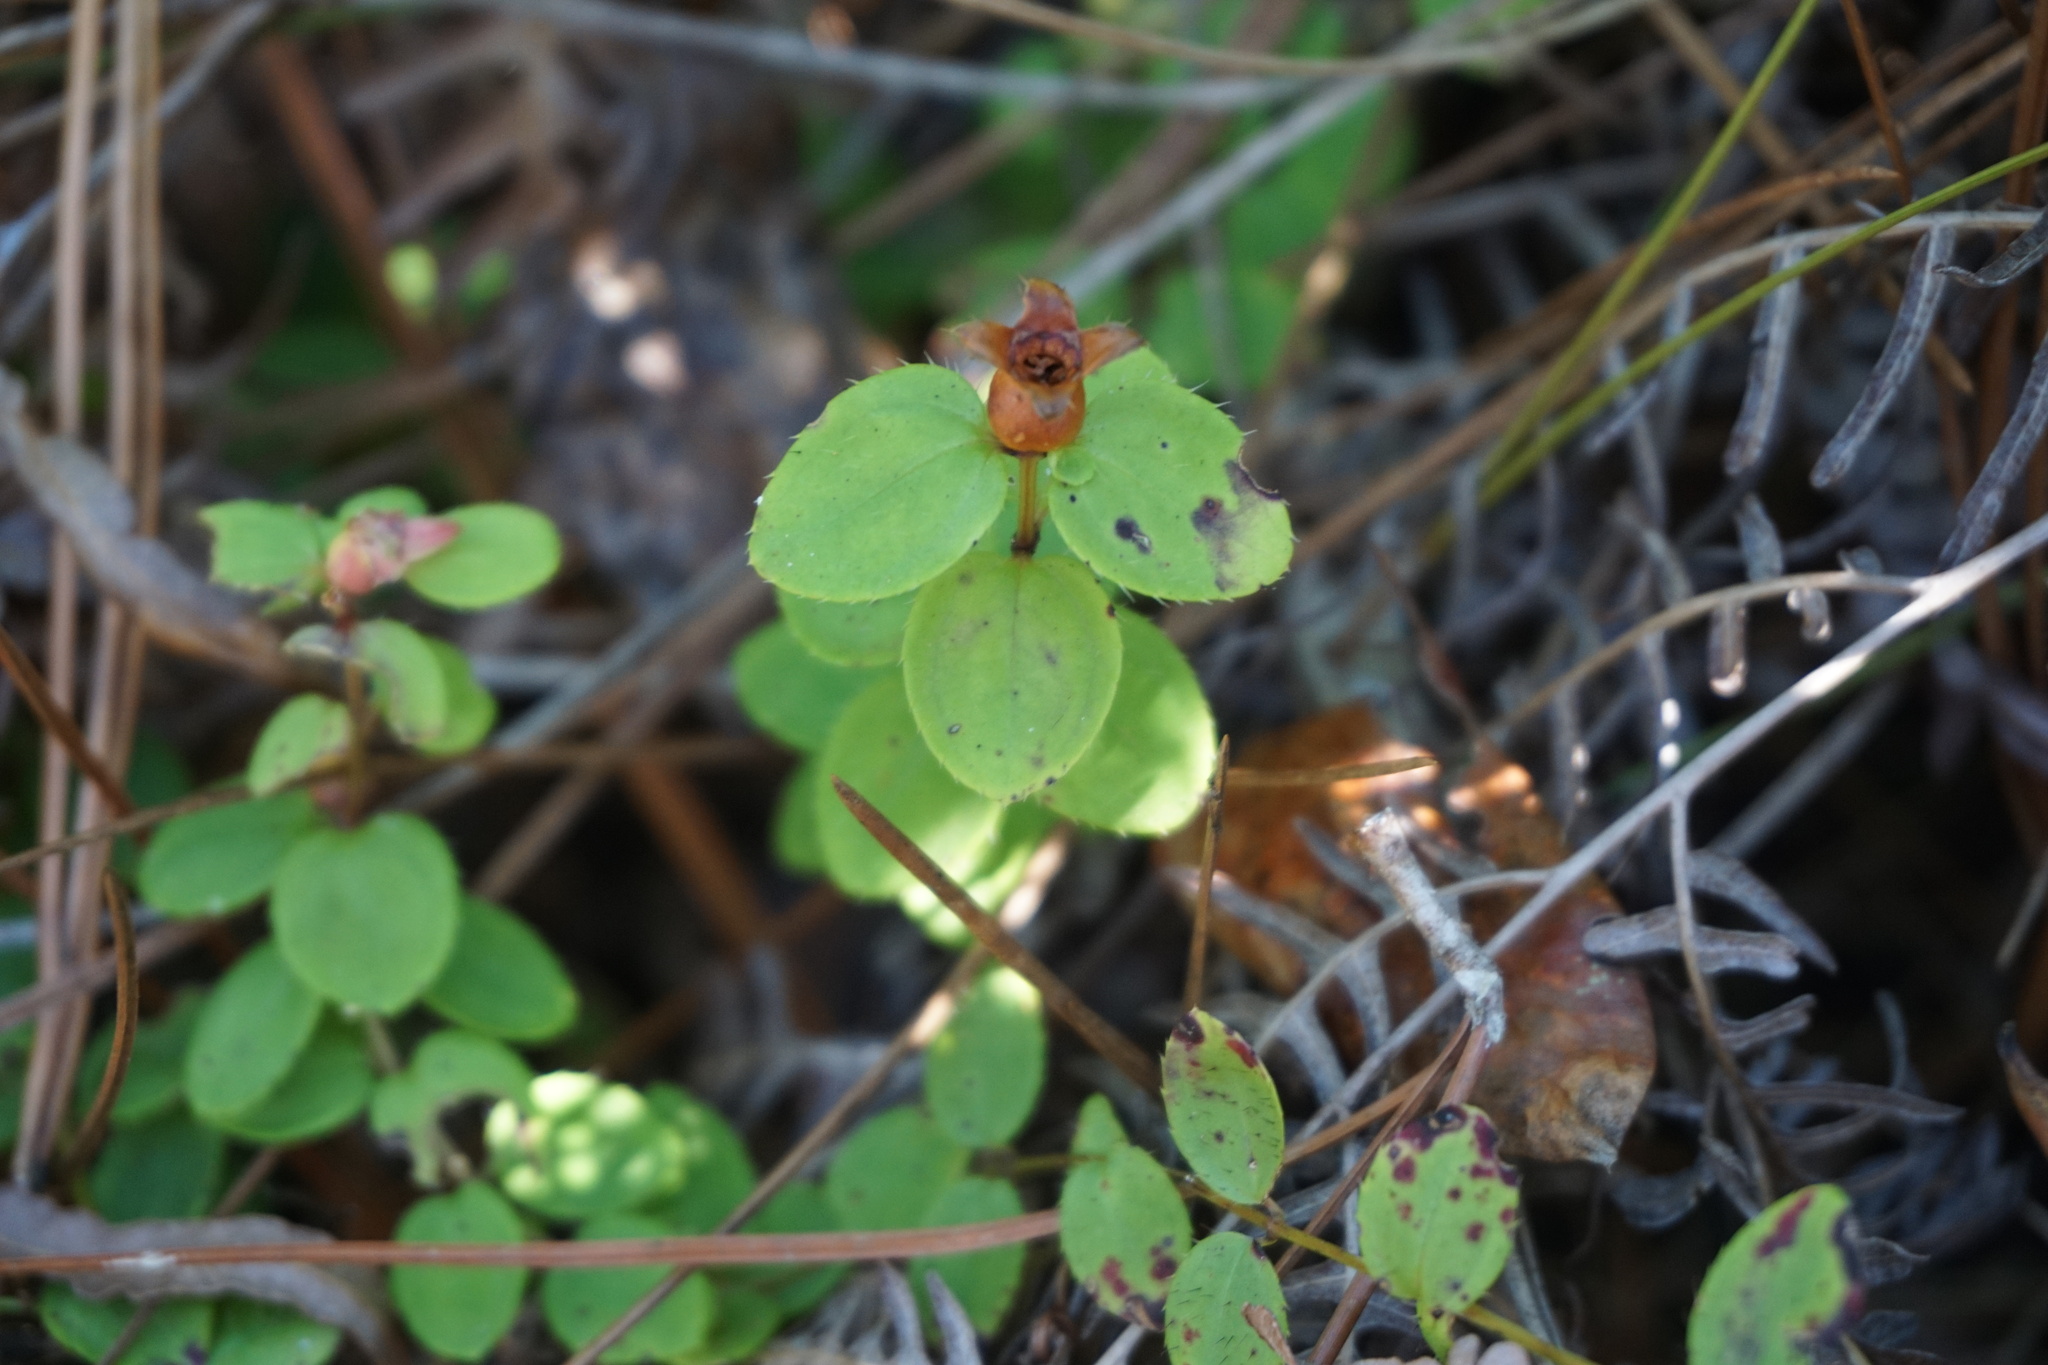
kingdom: Plantae
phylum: Tracheophyta
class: Magnoliopsida
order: Myrtales
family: Melastomataceae
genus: Rhexia
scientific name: Rhexia petiolata
